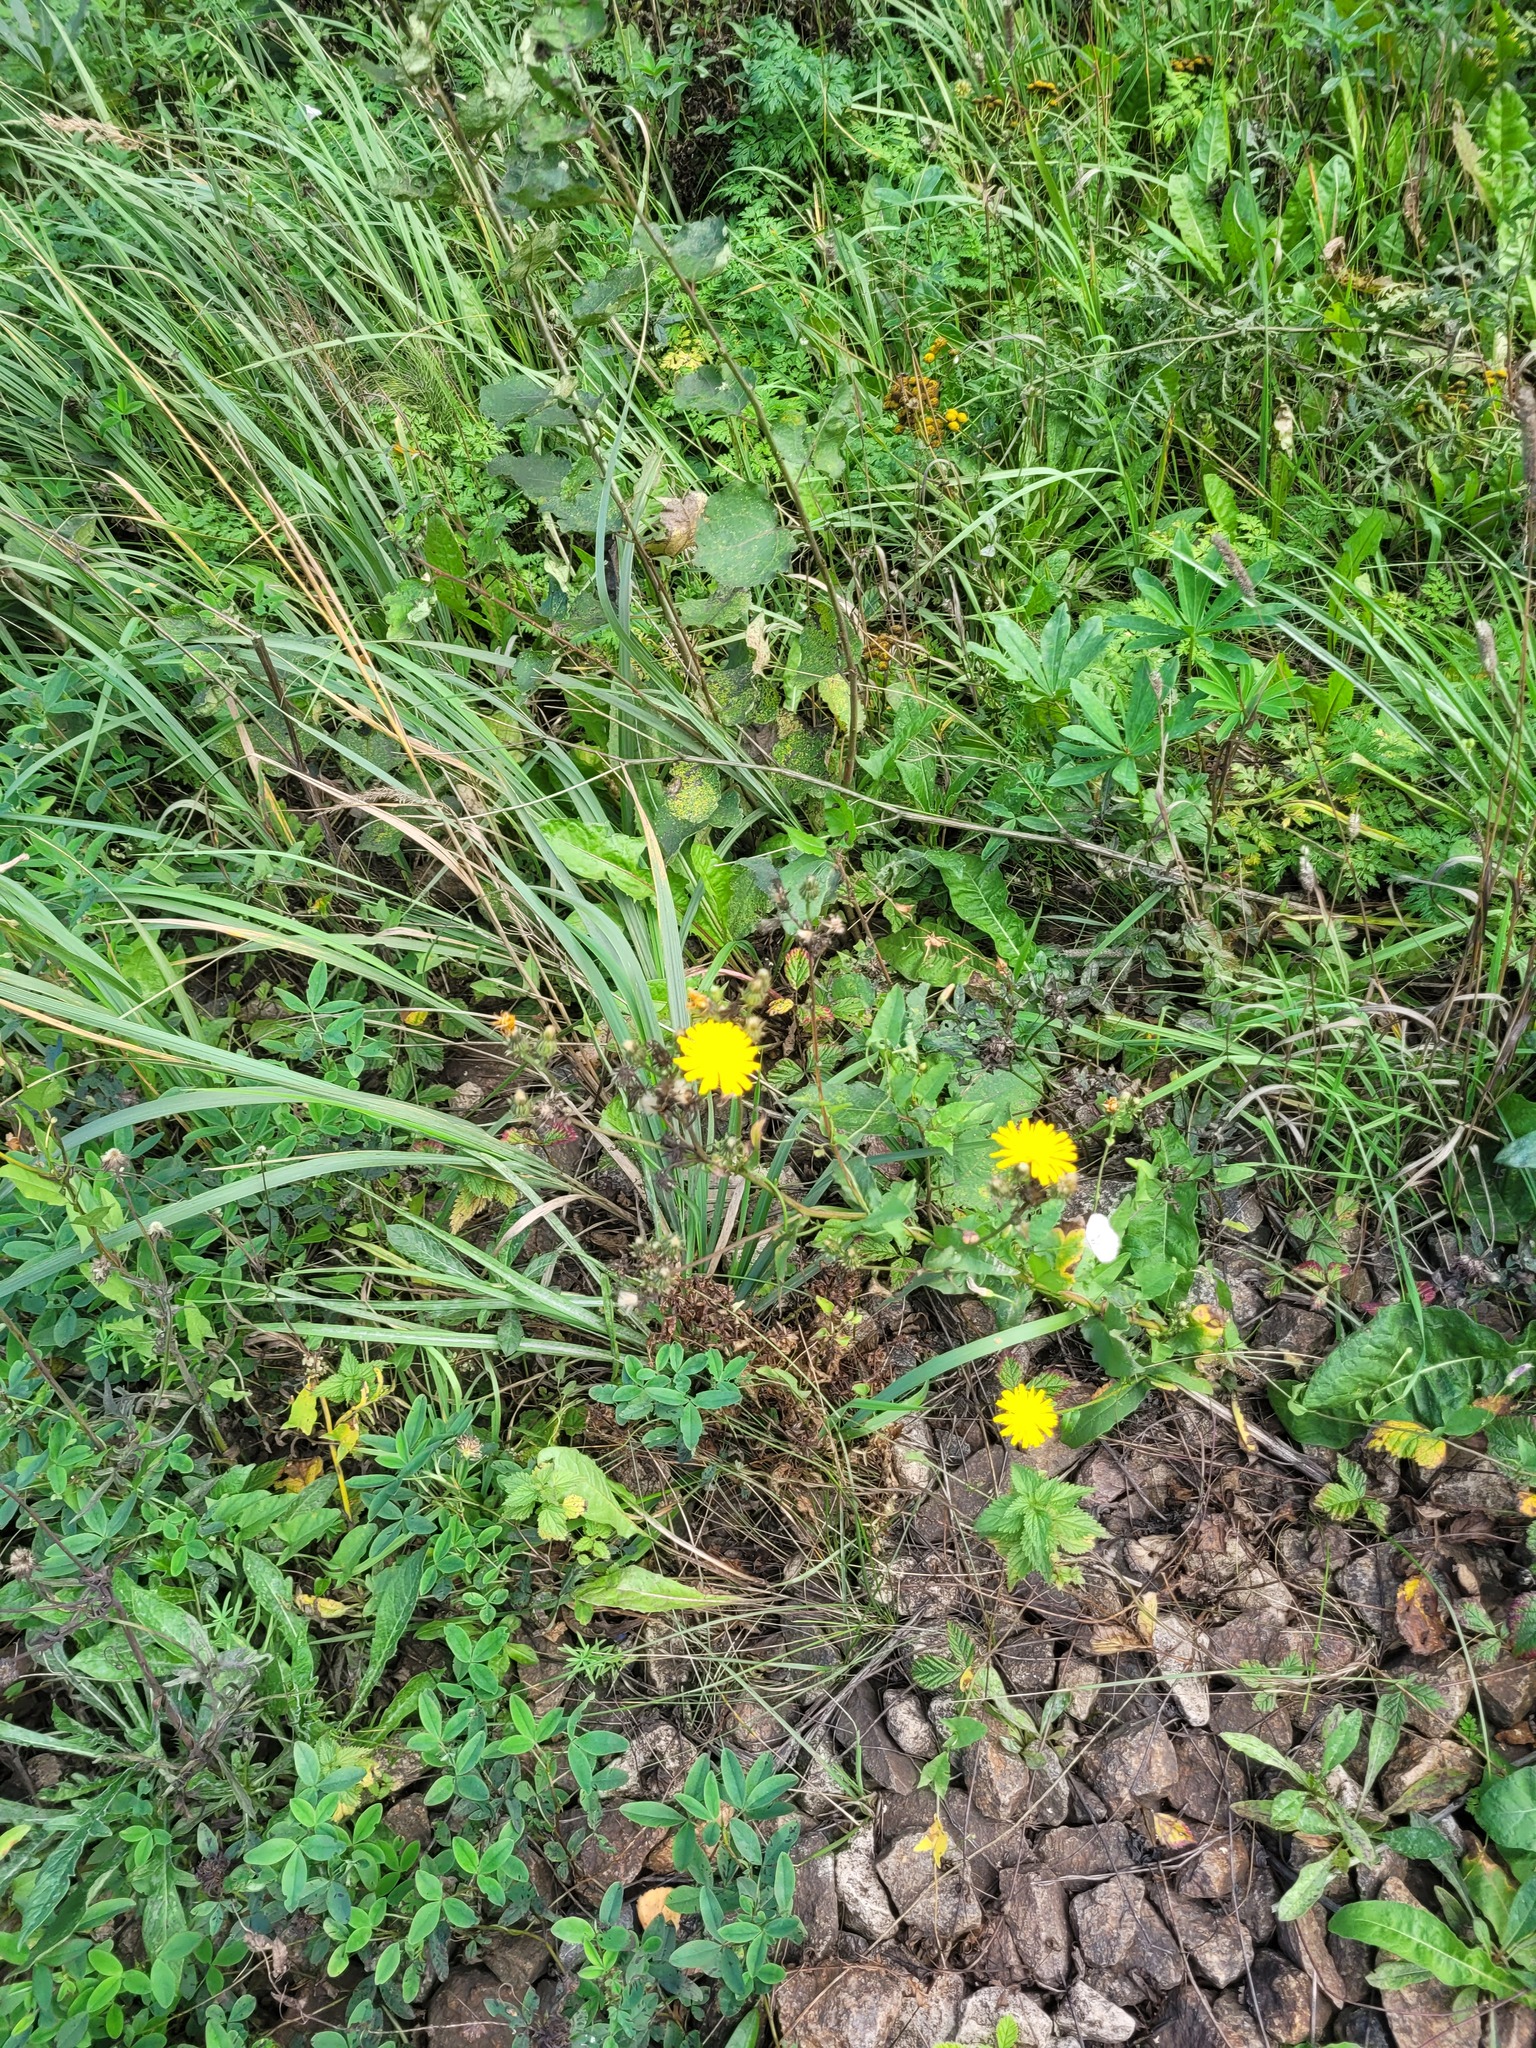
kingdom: Plantae
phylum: Tracheophyta
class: Magnoliopsida
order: Asterales
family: Asteraceae
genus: Picris
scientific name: Picris hieracioides
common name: Hawkweed oxtongue
